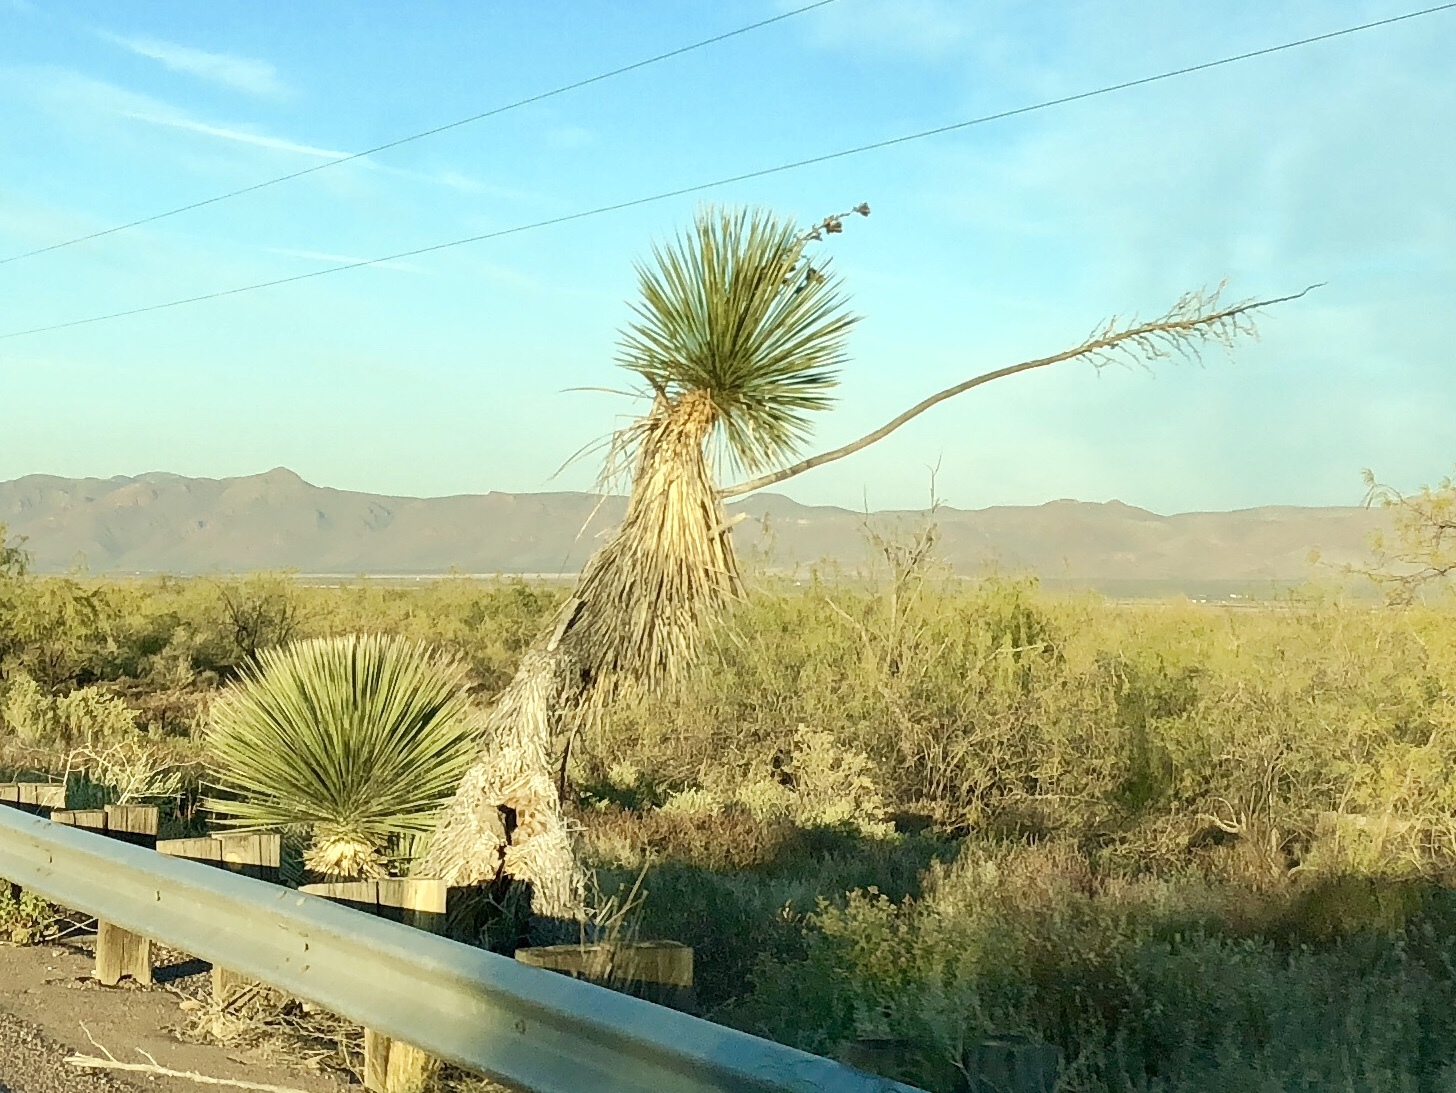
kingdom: Plantae
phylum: Tracheophyta
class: Liliopsida
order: Asparagales
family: Asparagaceae
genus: Yucca
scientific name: Yucca elata
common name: Palmella
